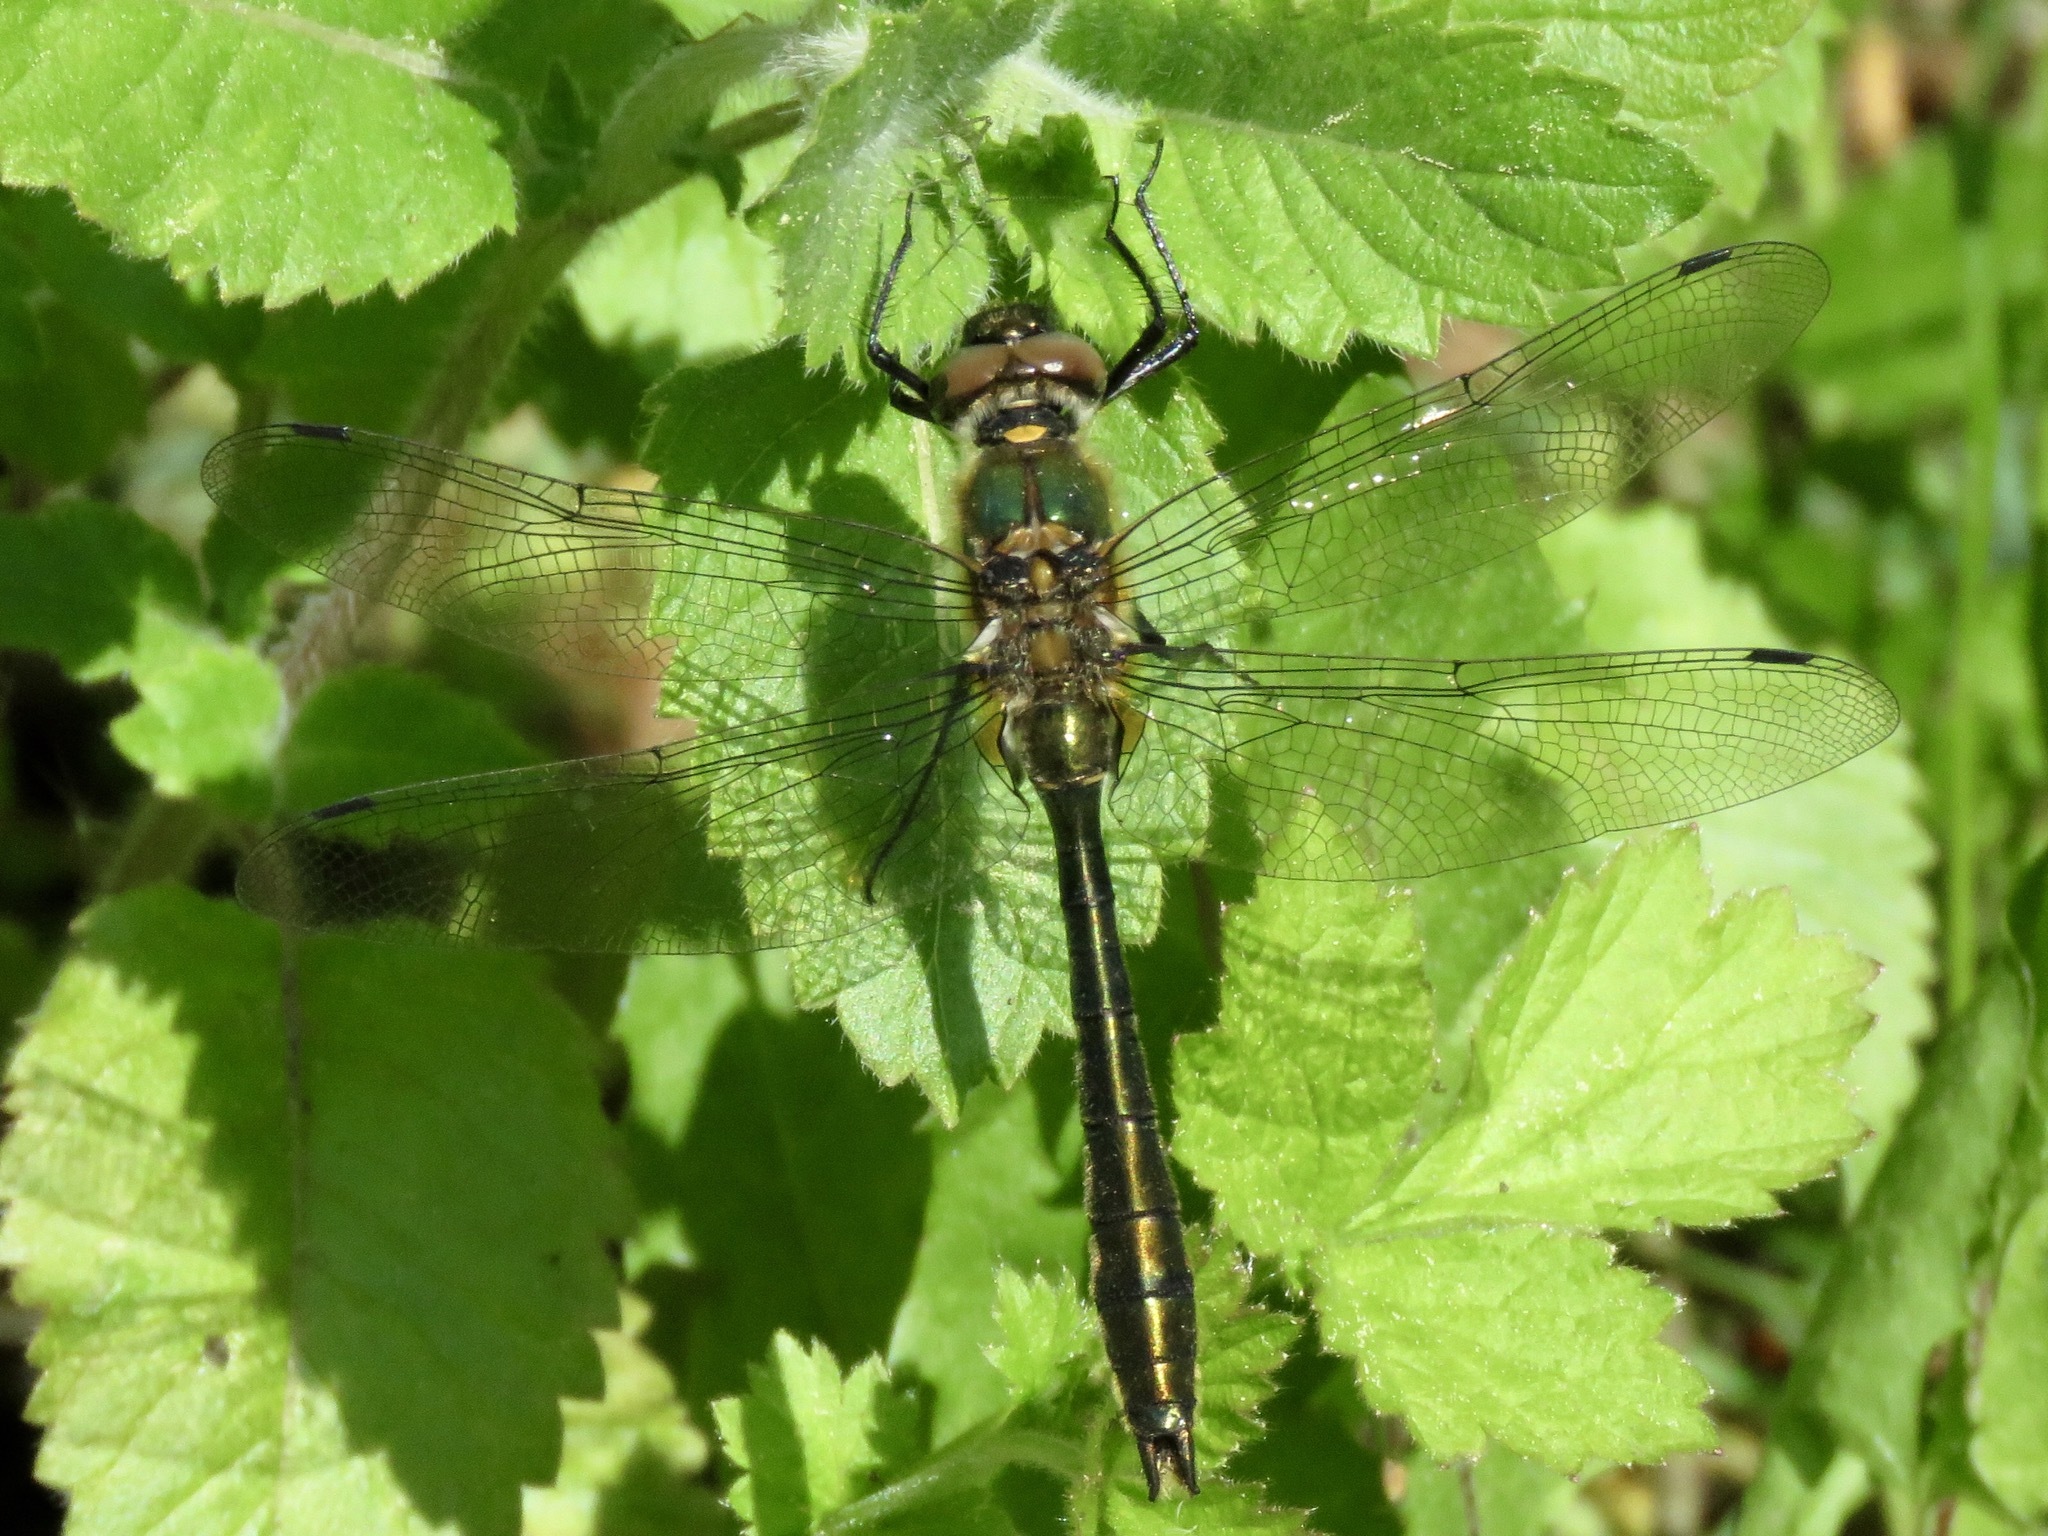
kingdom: Animalia
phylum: Arthropoda
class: Insecta
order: Odonata
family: Corduliidae
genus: Cordulia
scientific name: Cordulia aenea
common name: Downy emerald
